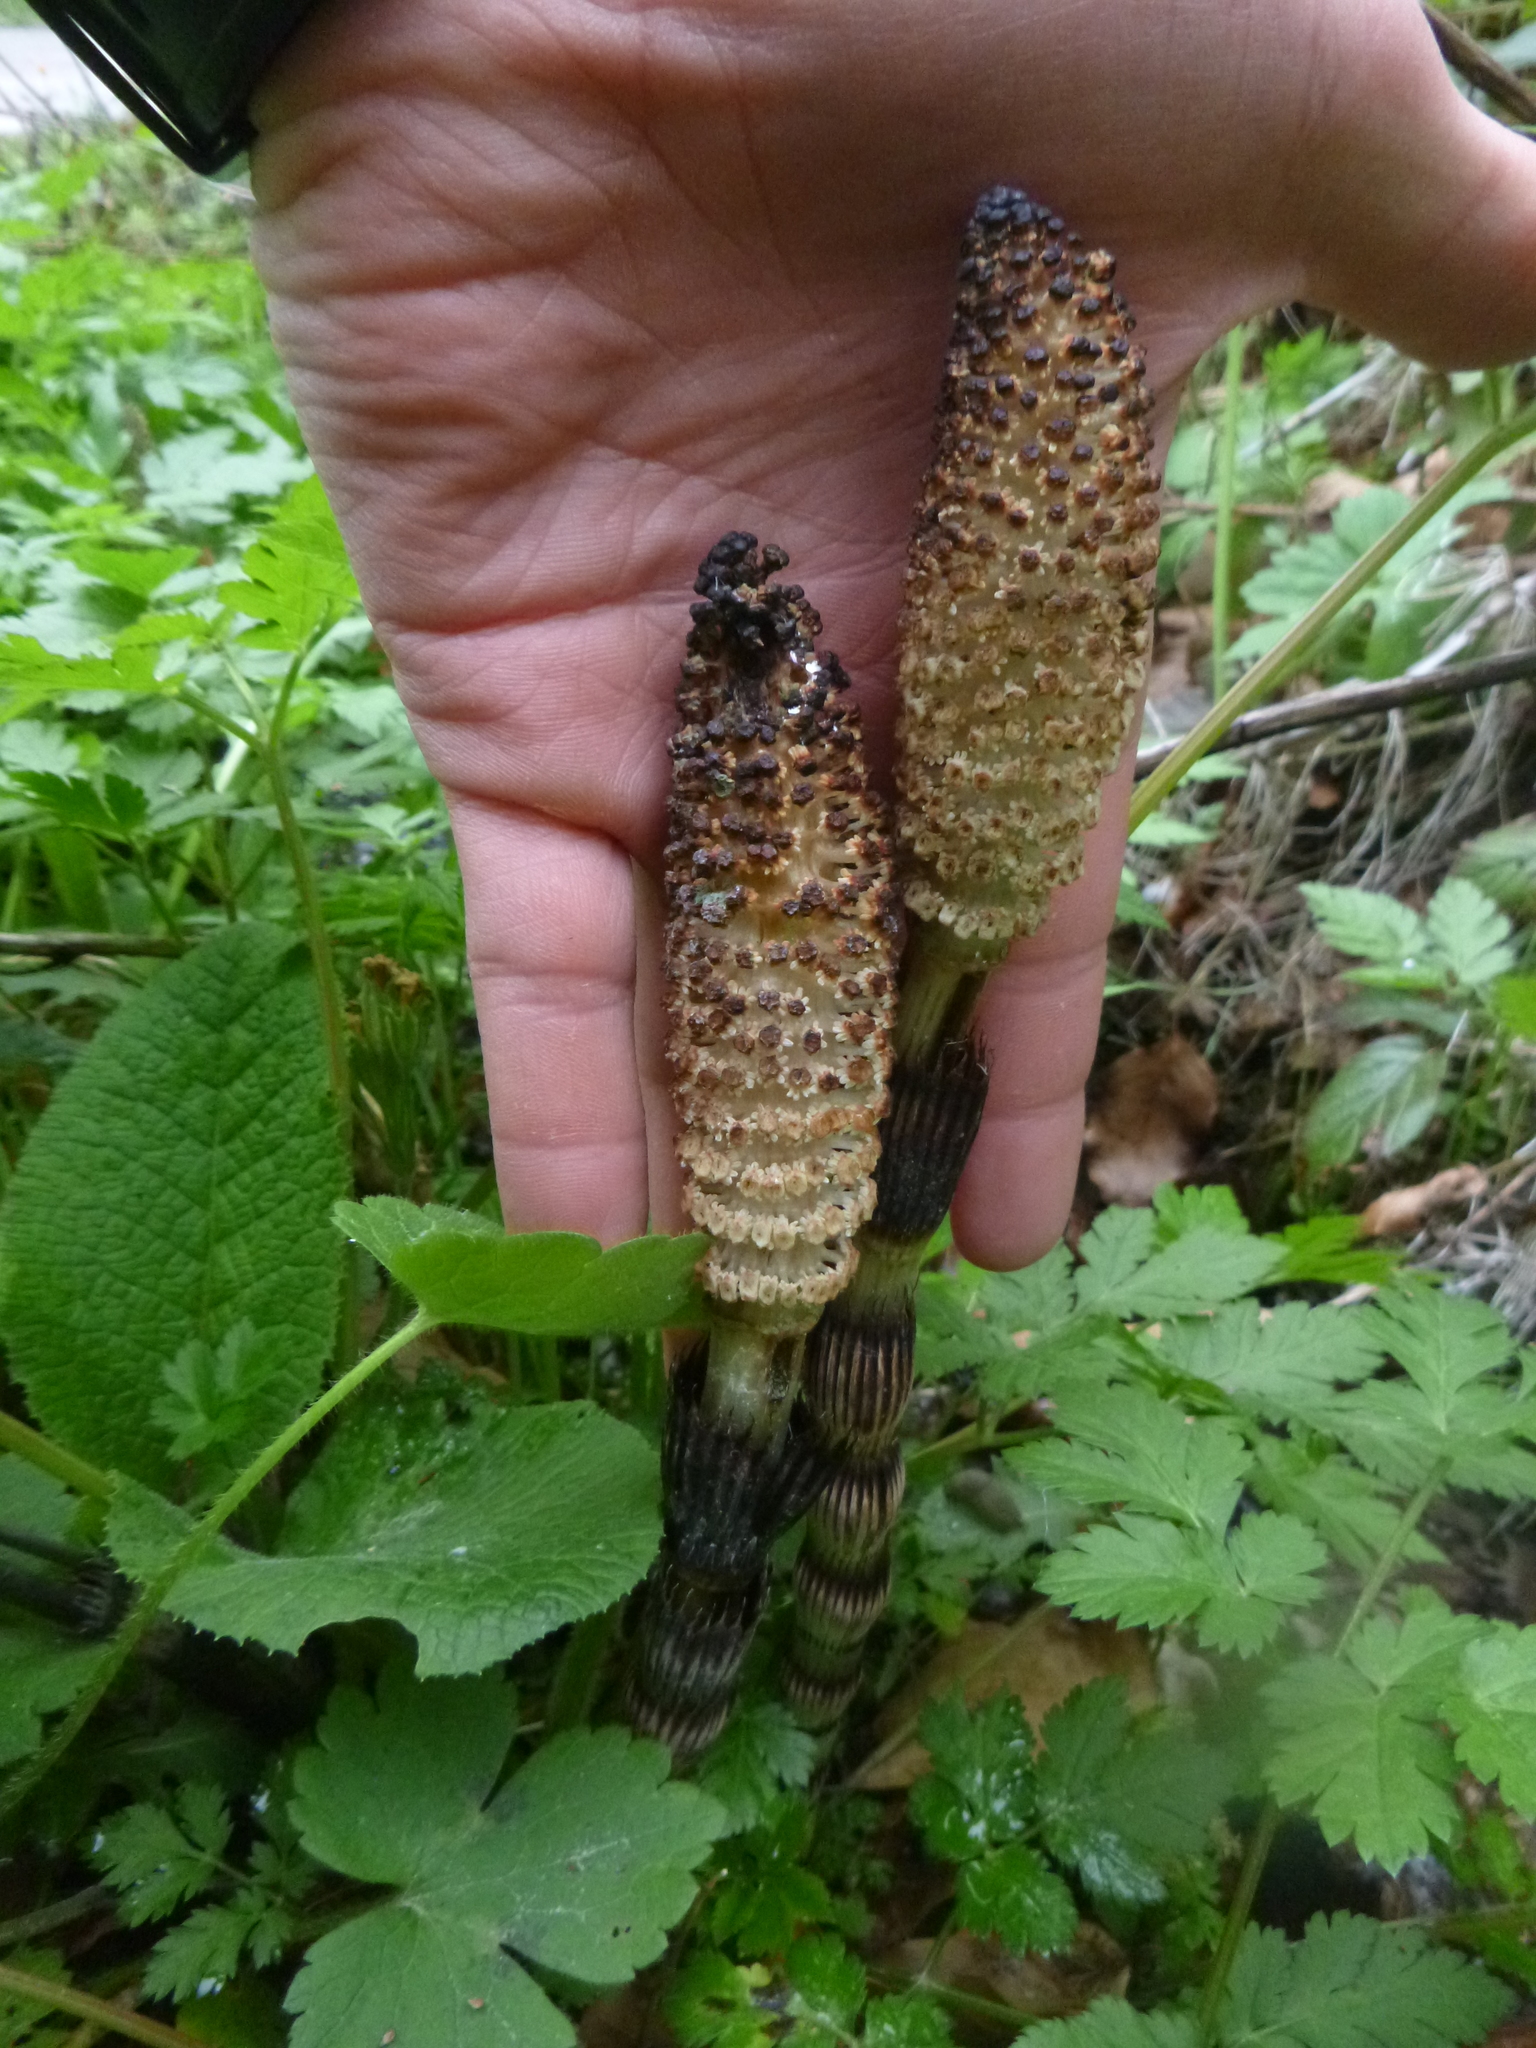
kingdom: Plantae
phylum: Tracheophyta
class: Polypodiopsida
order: Equisetales
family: Equisetaceae
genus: Equisetum
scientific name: Equisetum telmateia
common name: Great horsetail
